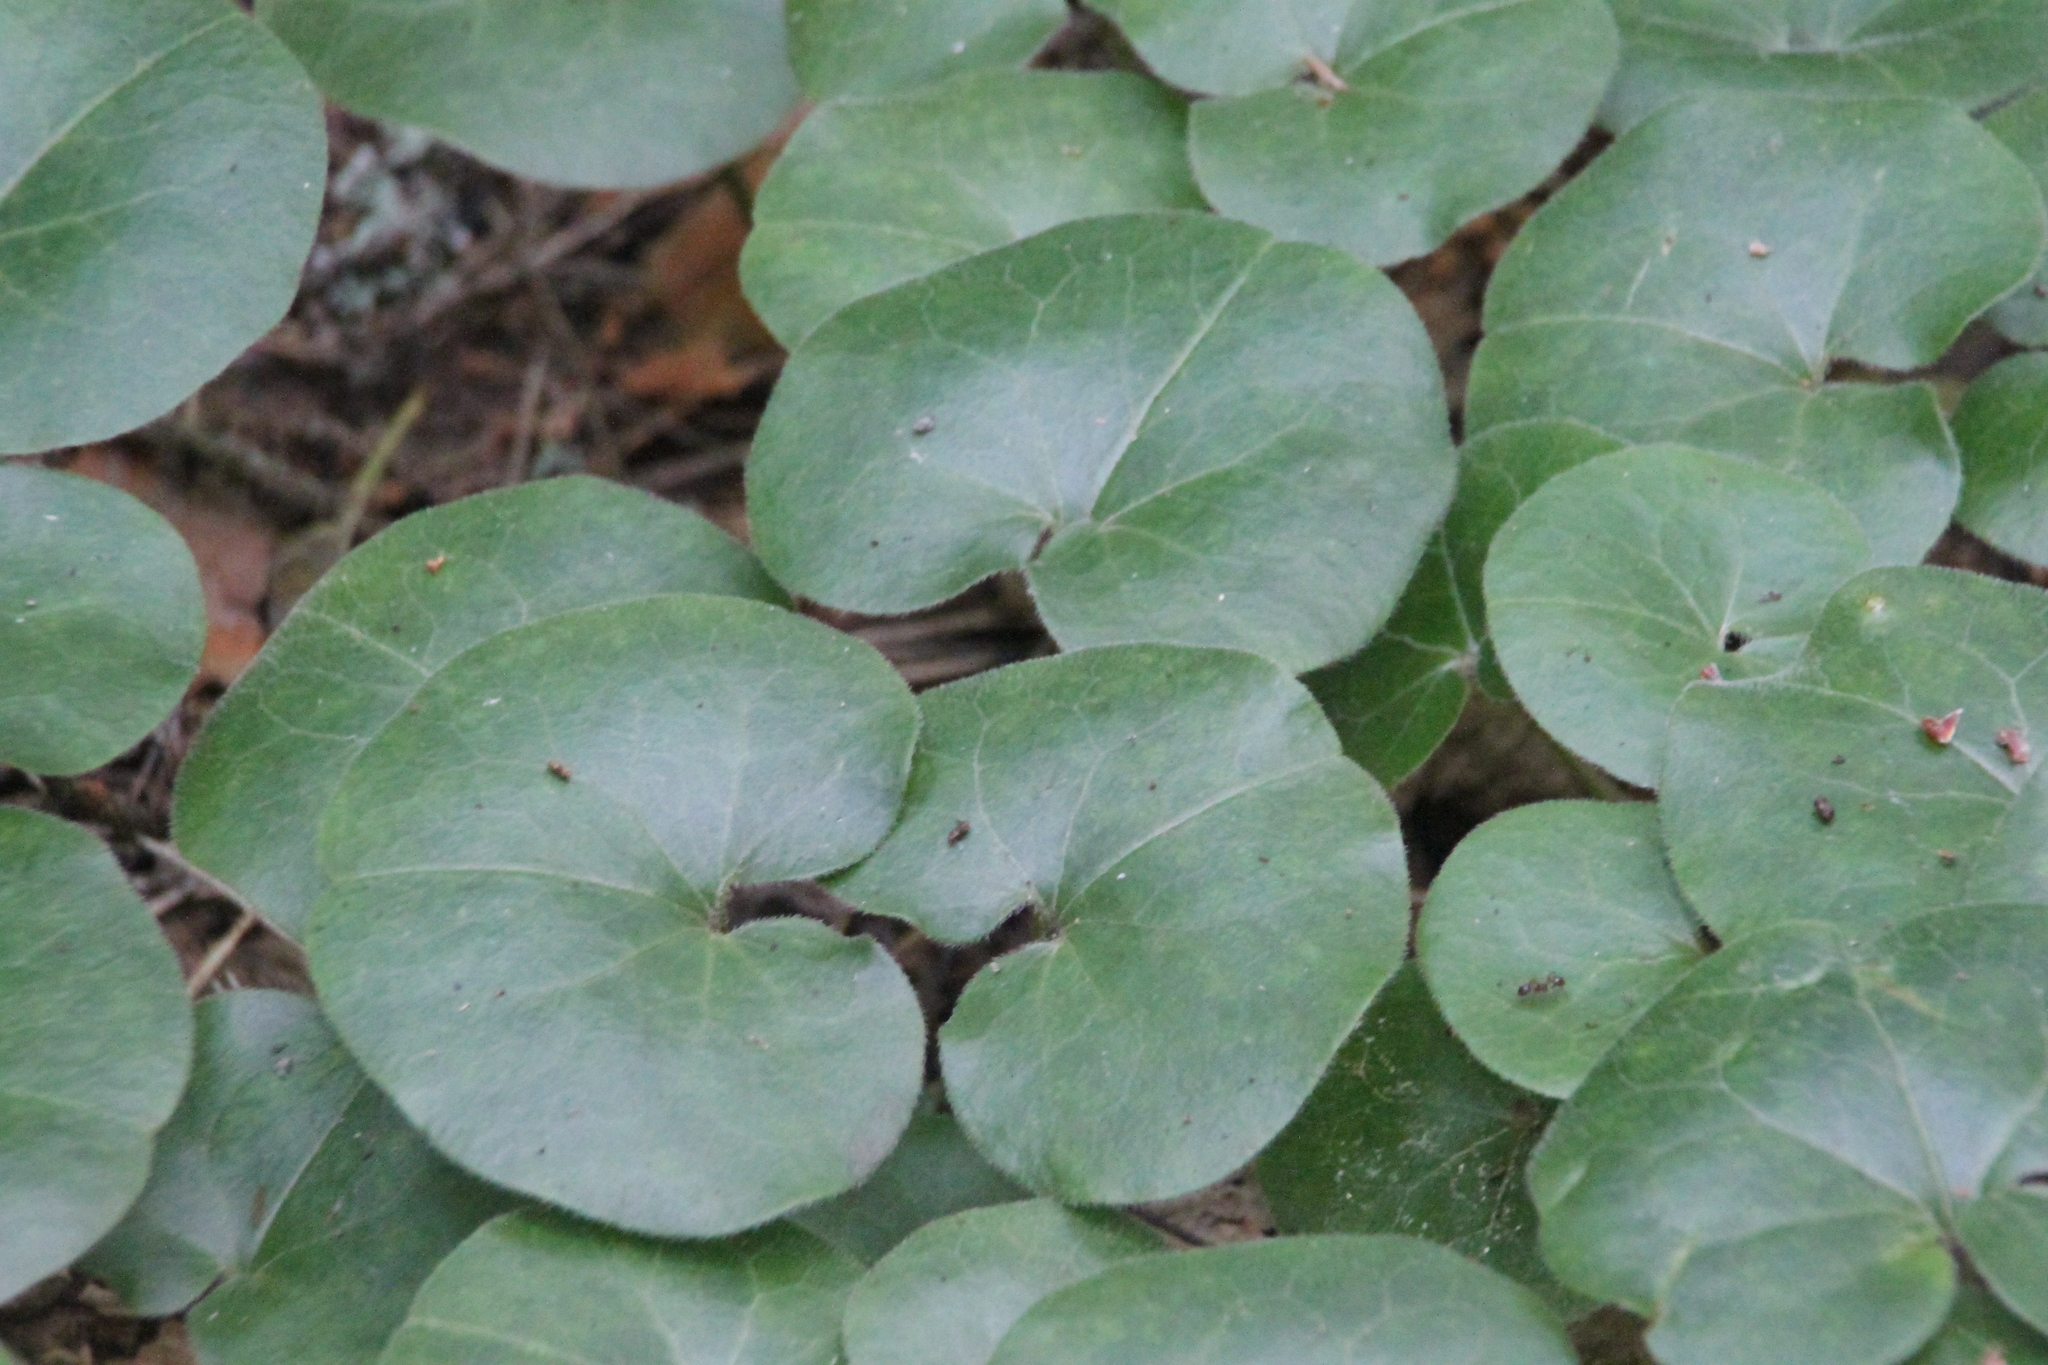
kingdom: Plantae
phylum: Tracheophyta
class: Magnoliopsida
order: Piperales
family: Aristolochiaceae
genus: Asarum
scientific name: Asarum europaeum
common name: Asarabacca
